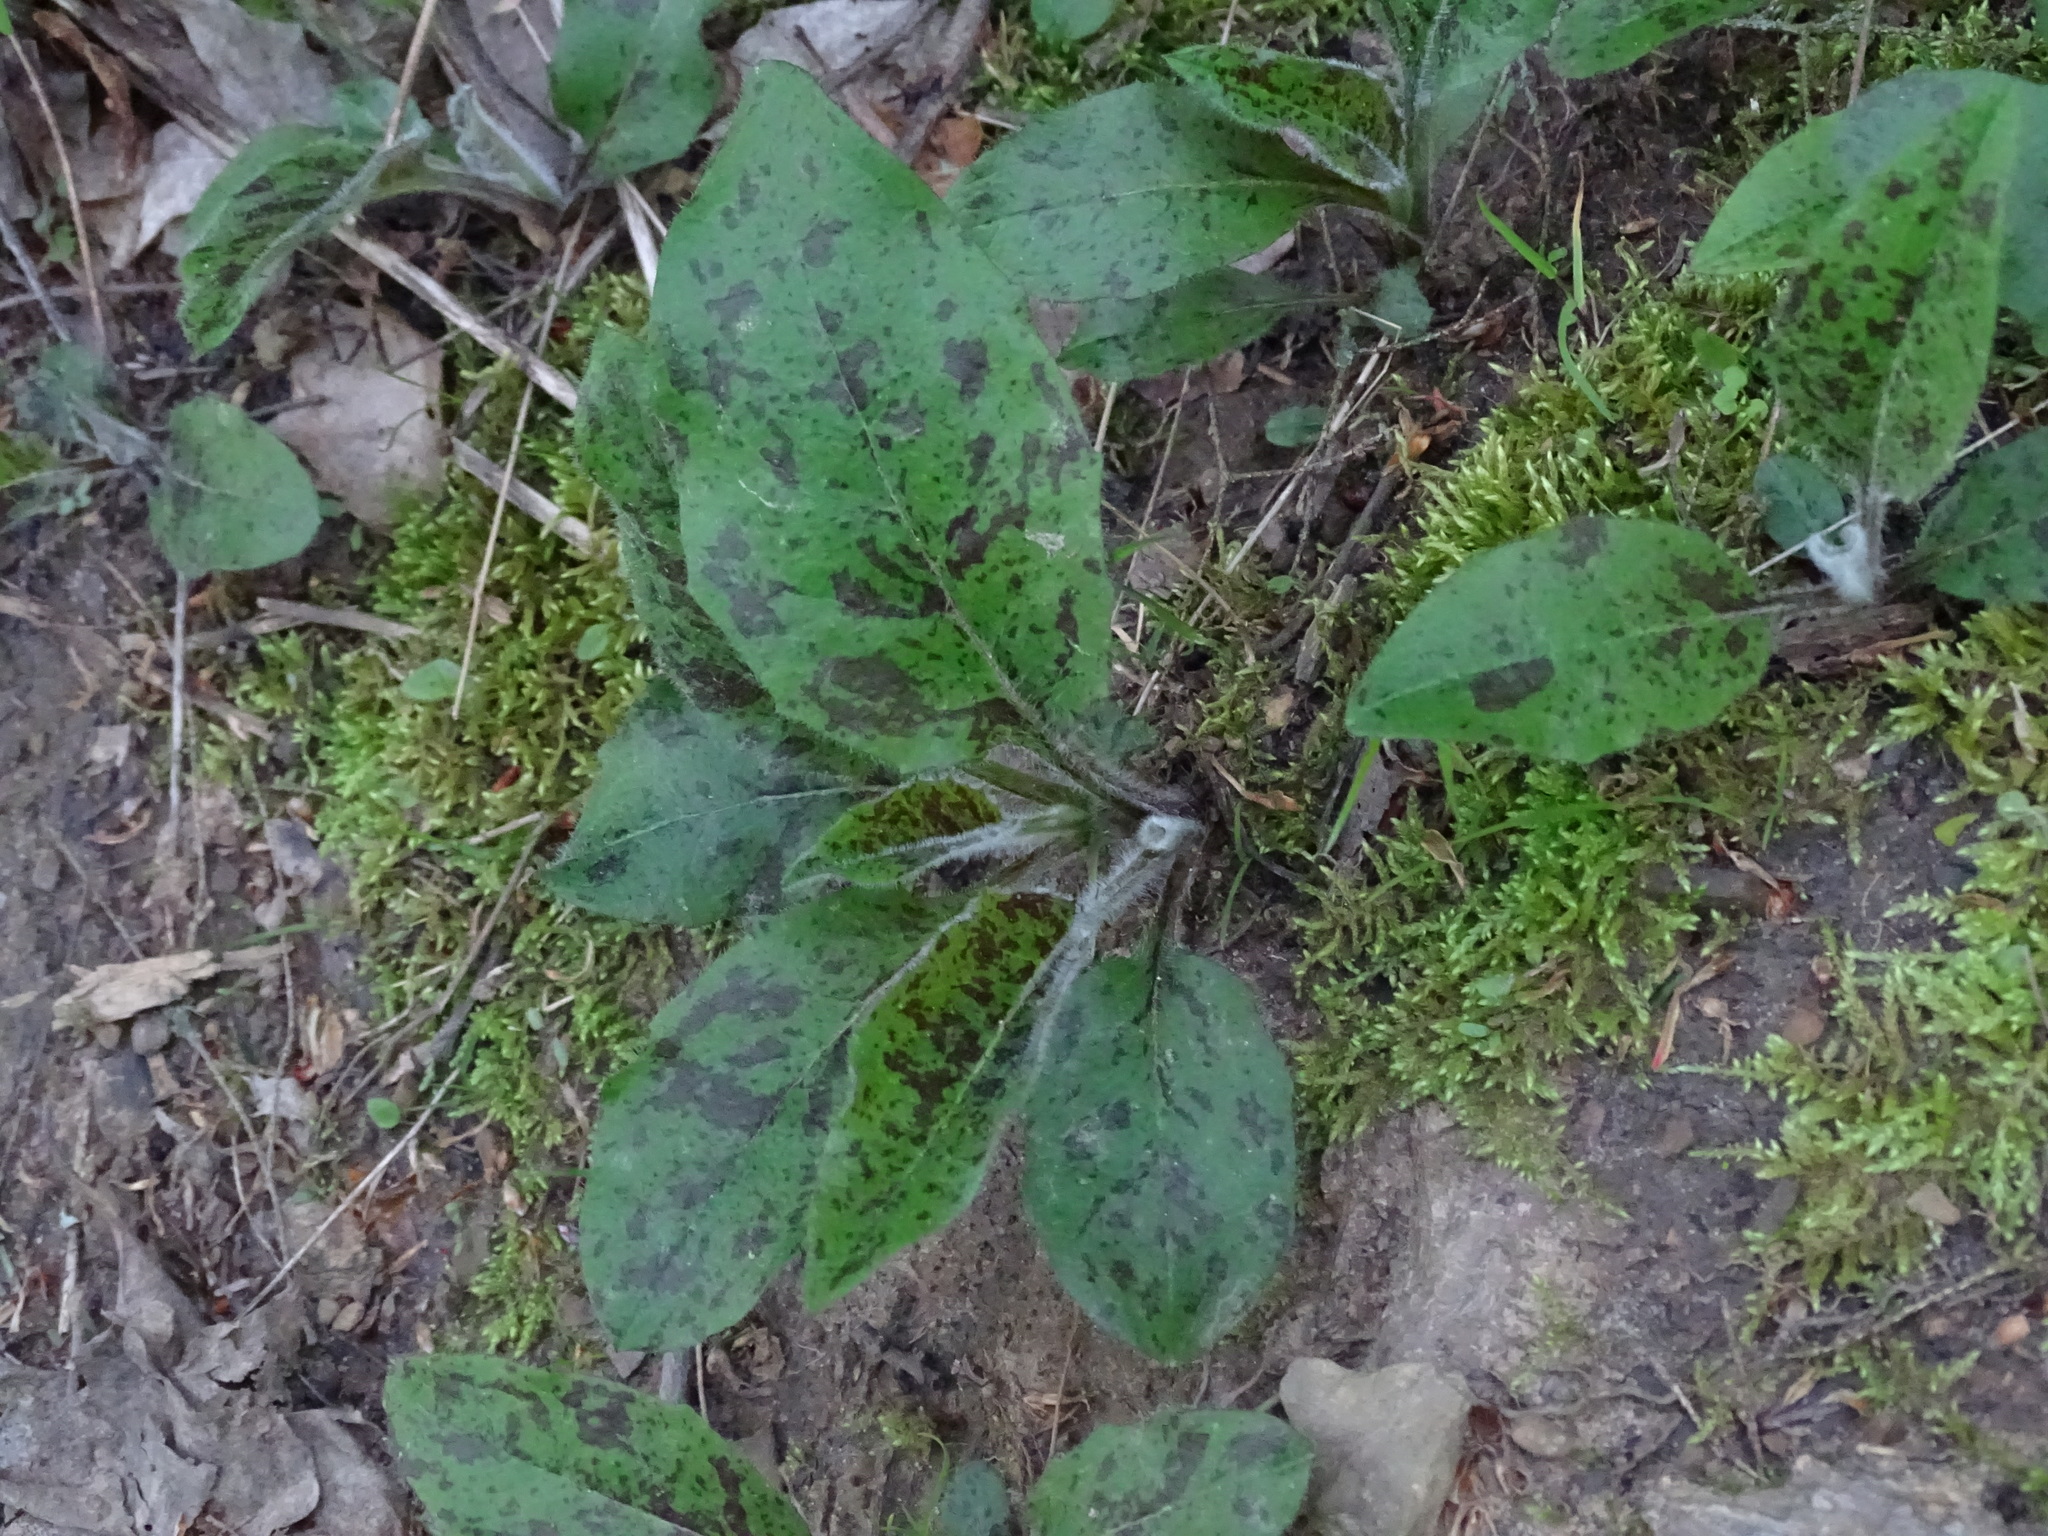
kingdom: Plantae
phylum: Tracheophyta
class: Magnoliopsida
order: Asterales
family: Asteraceae
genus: Hieracium
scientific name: Hieracium maculatum
